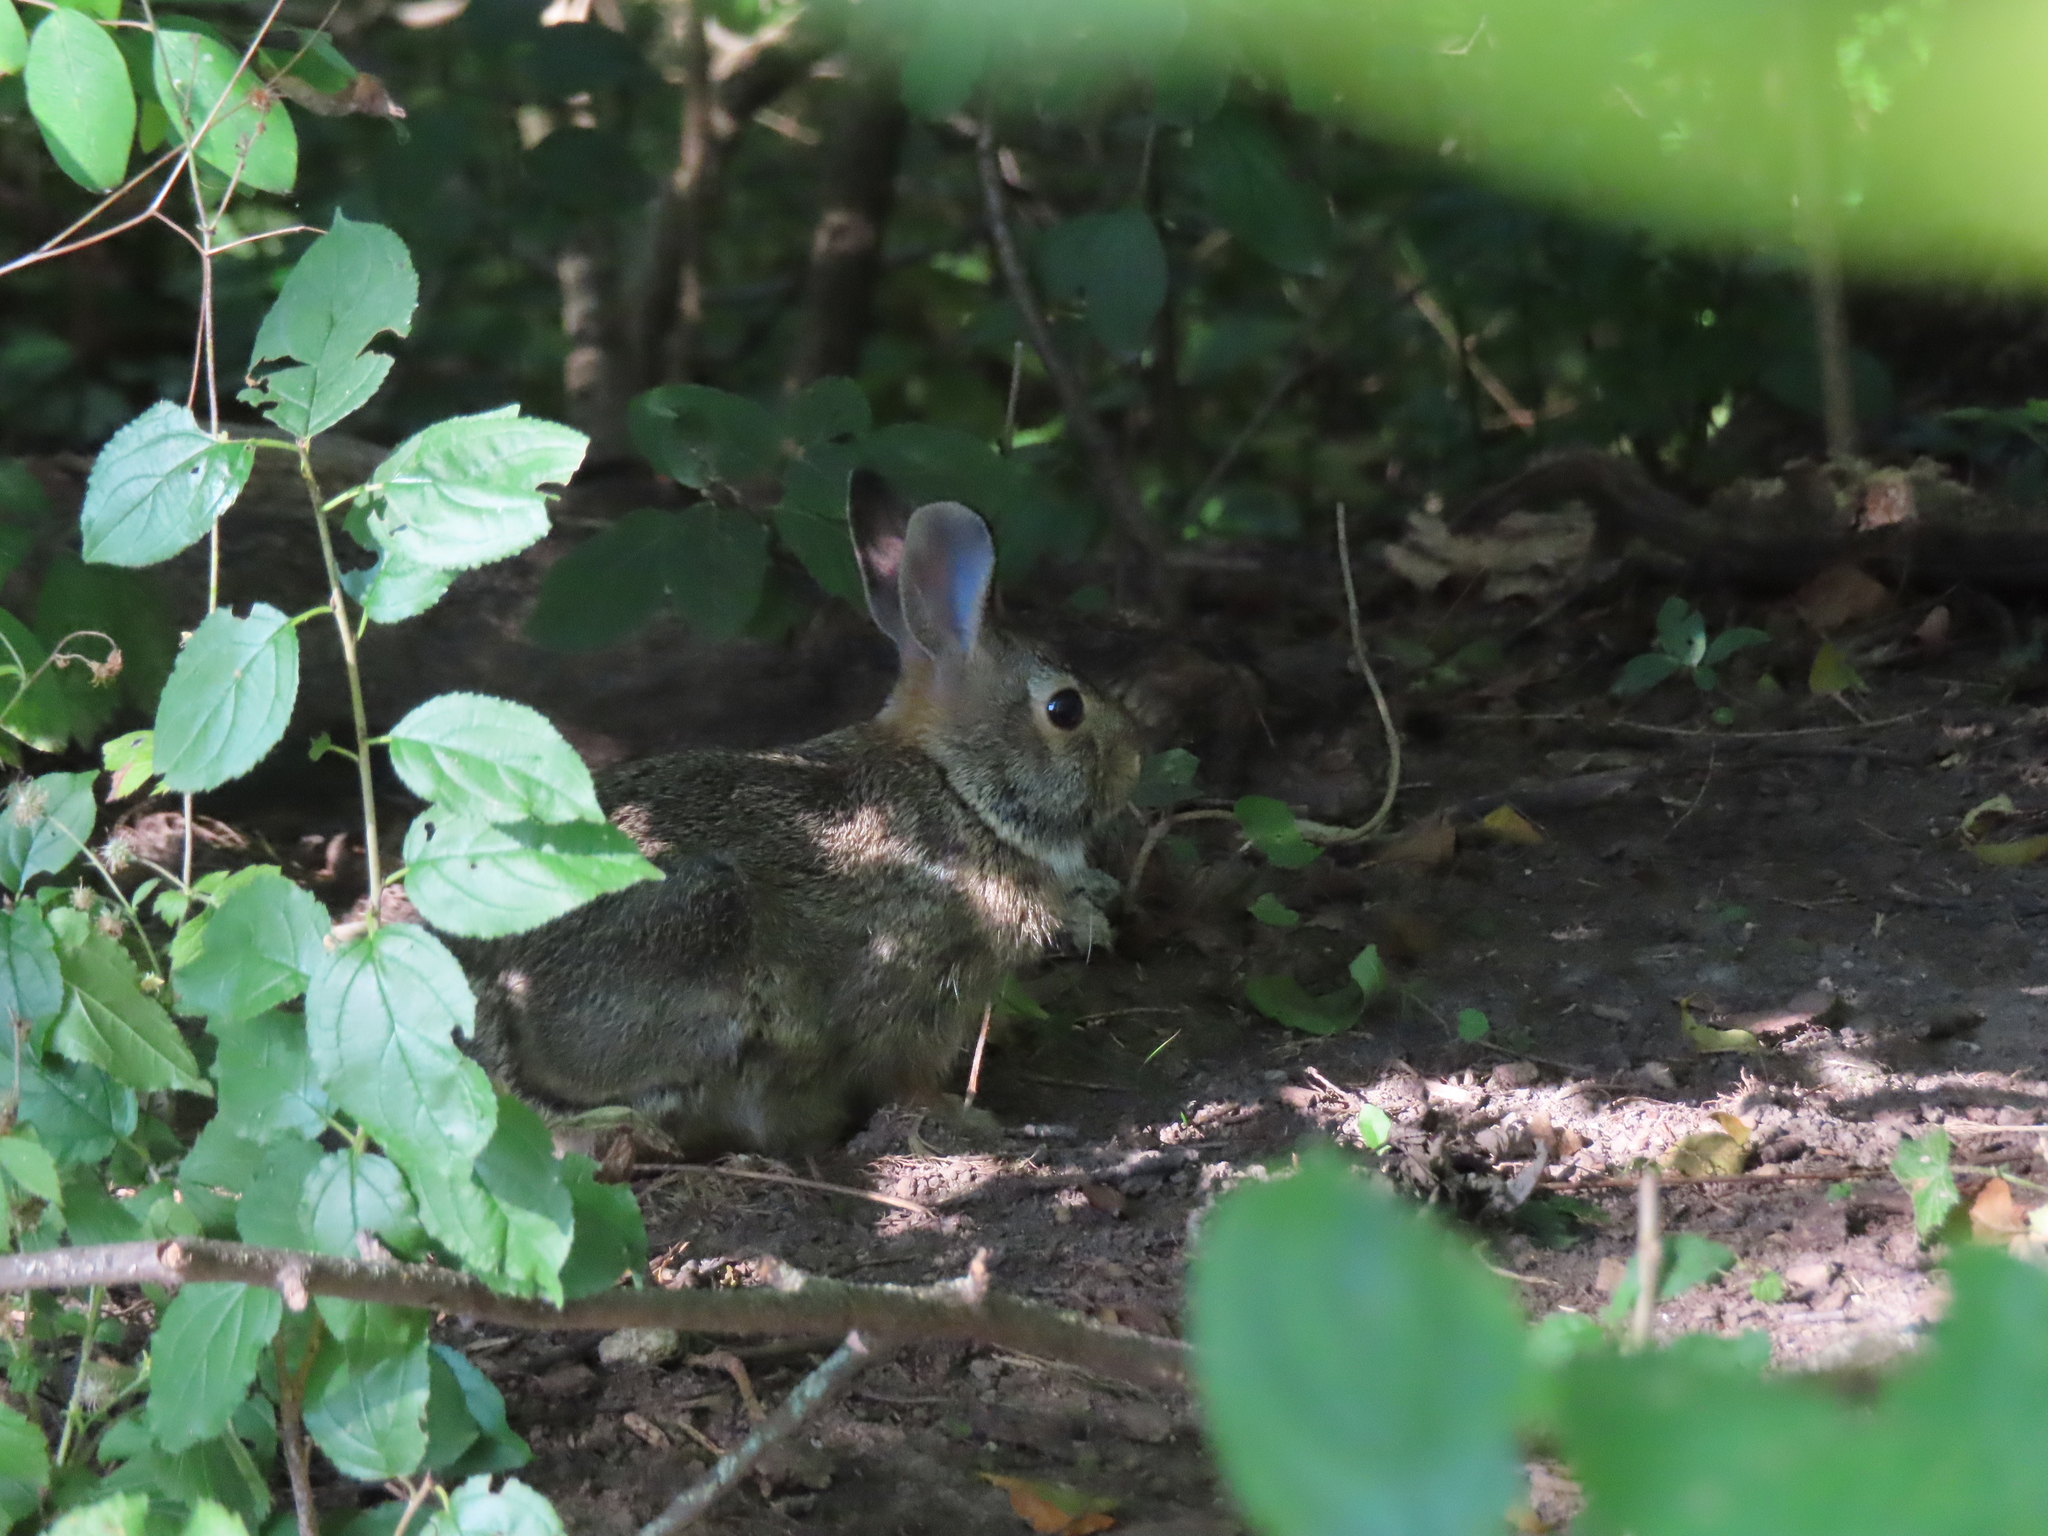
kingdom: Animalia
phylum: Chordata
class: Mammalia
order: Lagomorpha
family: Leporidae
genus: Sylvilagus
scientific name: Sylvilagus floridanus
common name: Eastern cottontail
